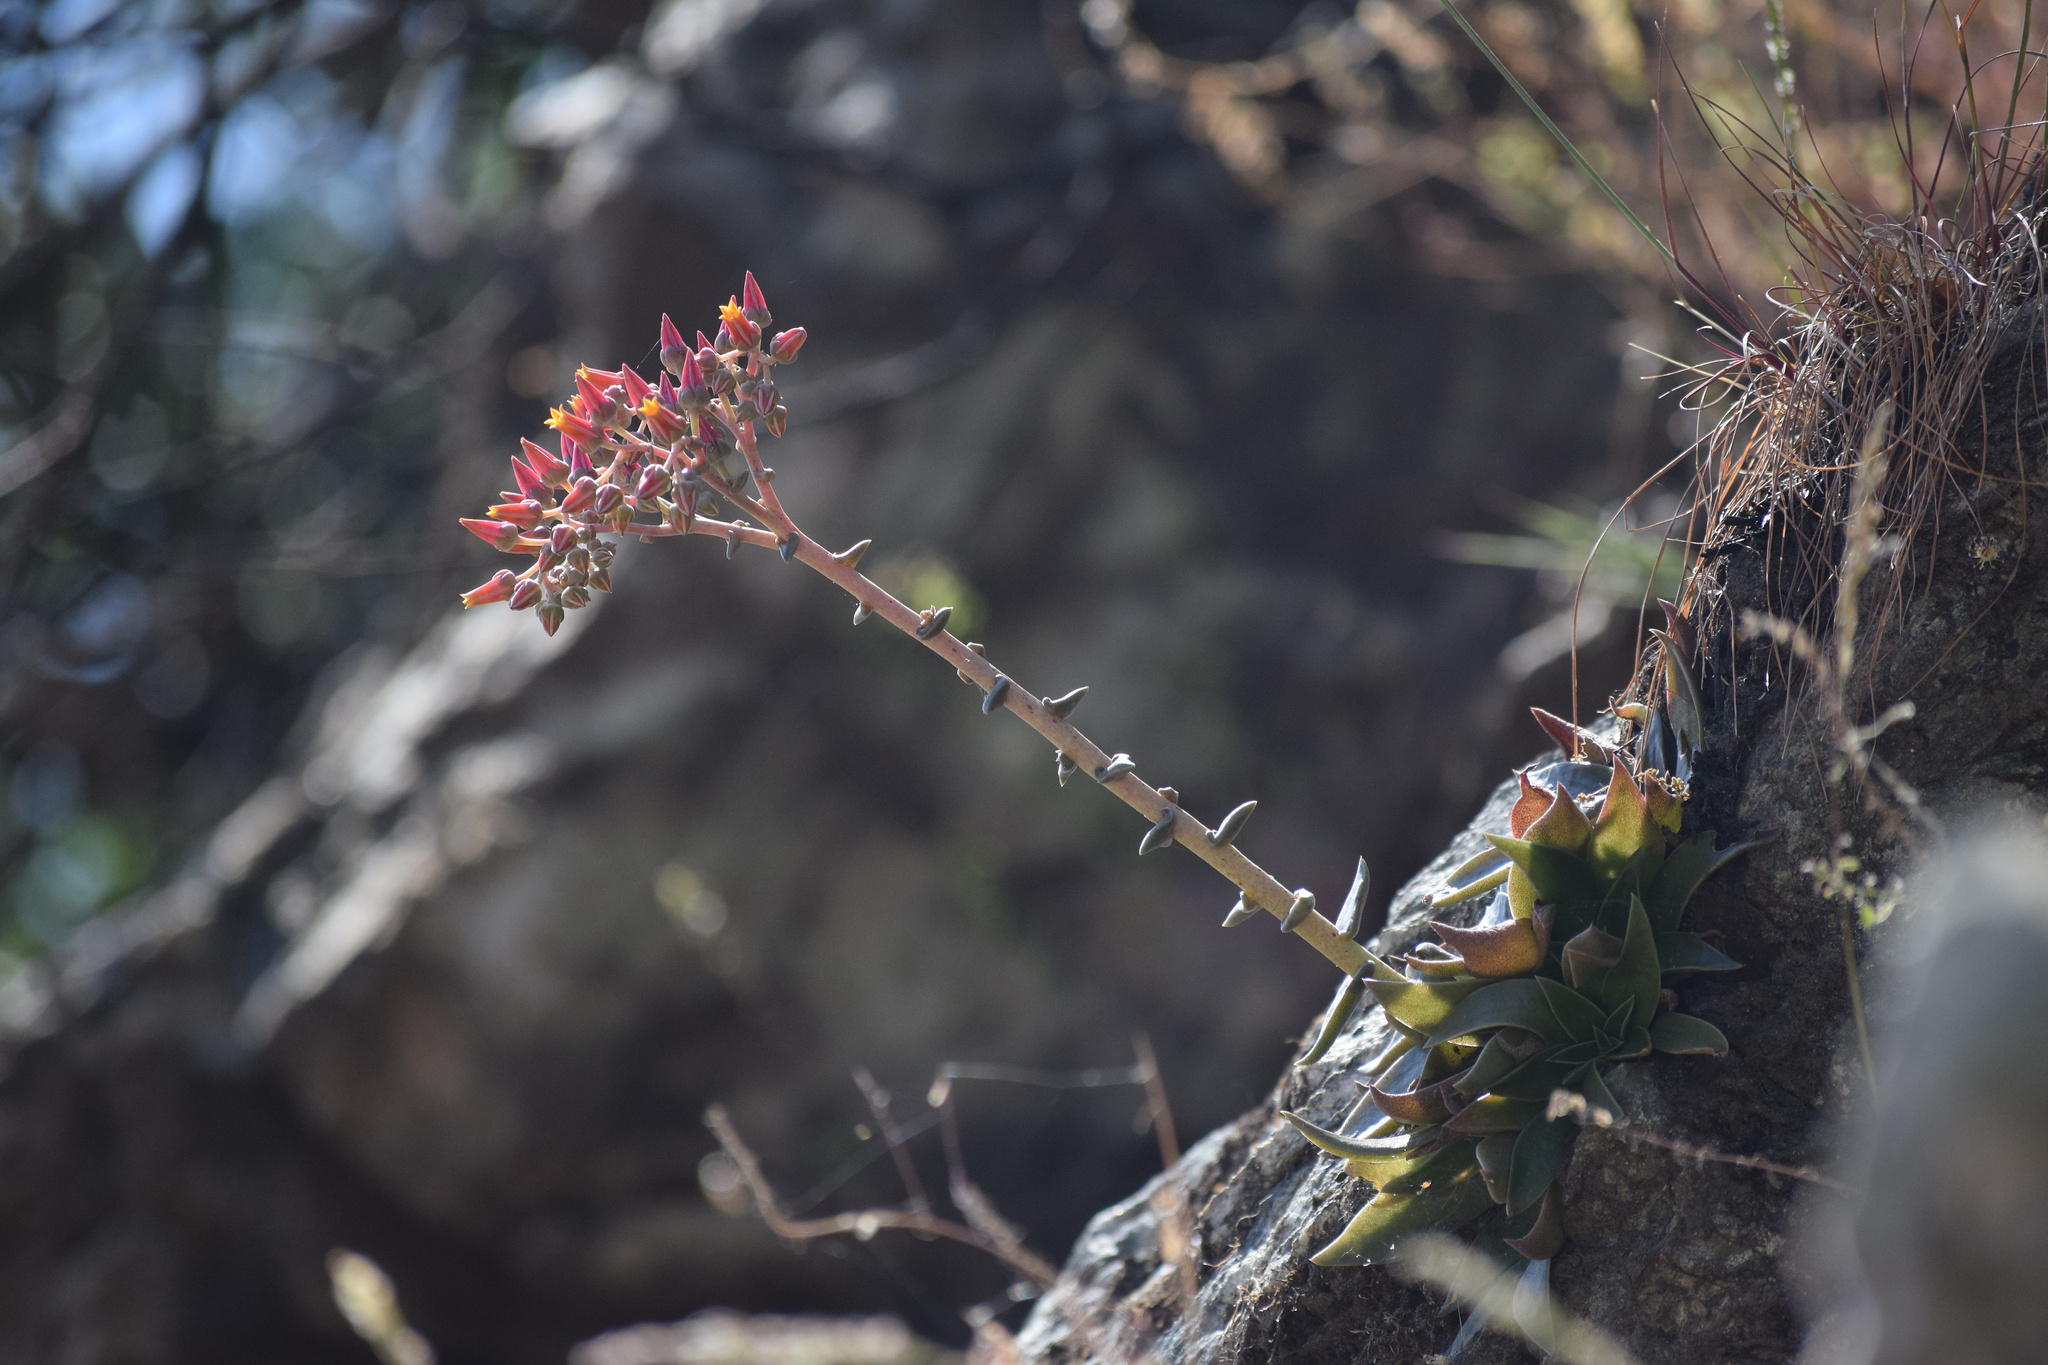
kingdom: Plantae
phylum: Tracheophyta
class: Magnoliopsida
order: Saxifragales
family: Crassulaceae
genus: Dudleya
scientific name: Dudleya lanceolata
